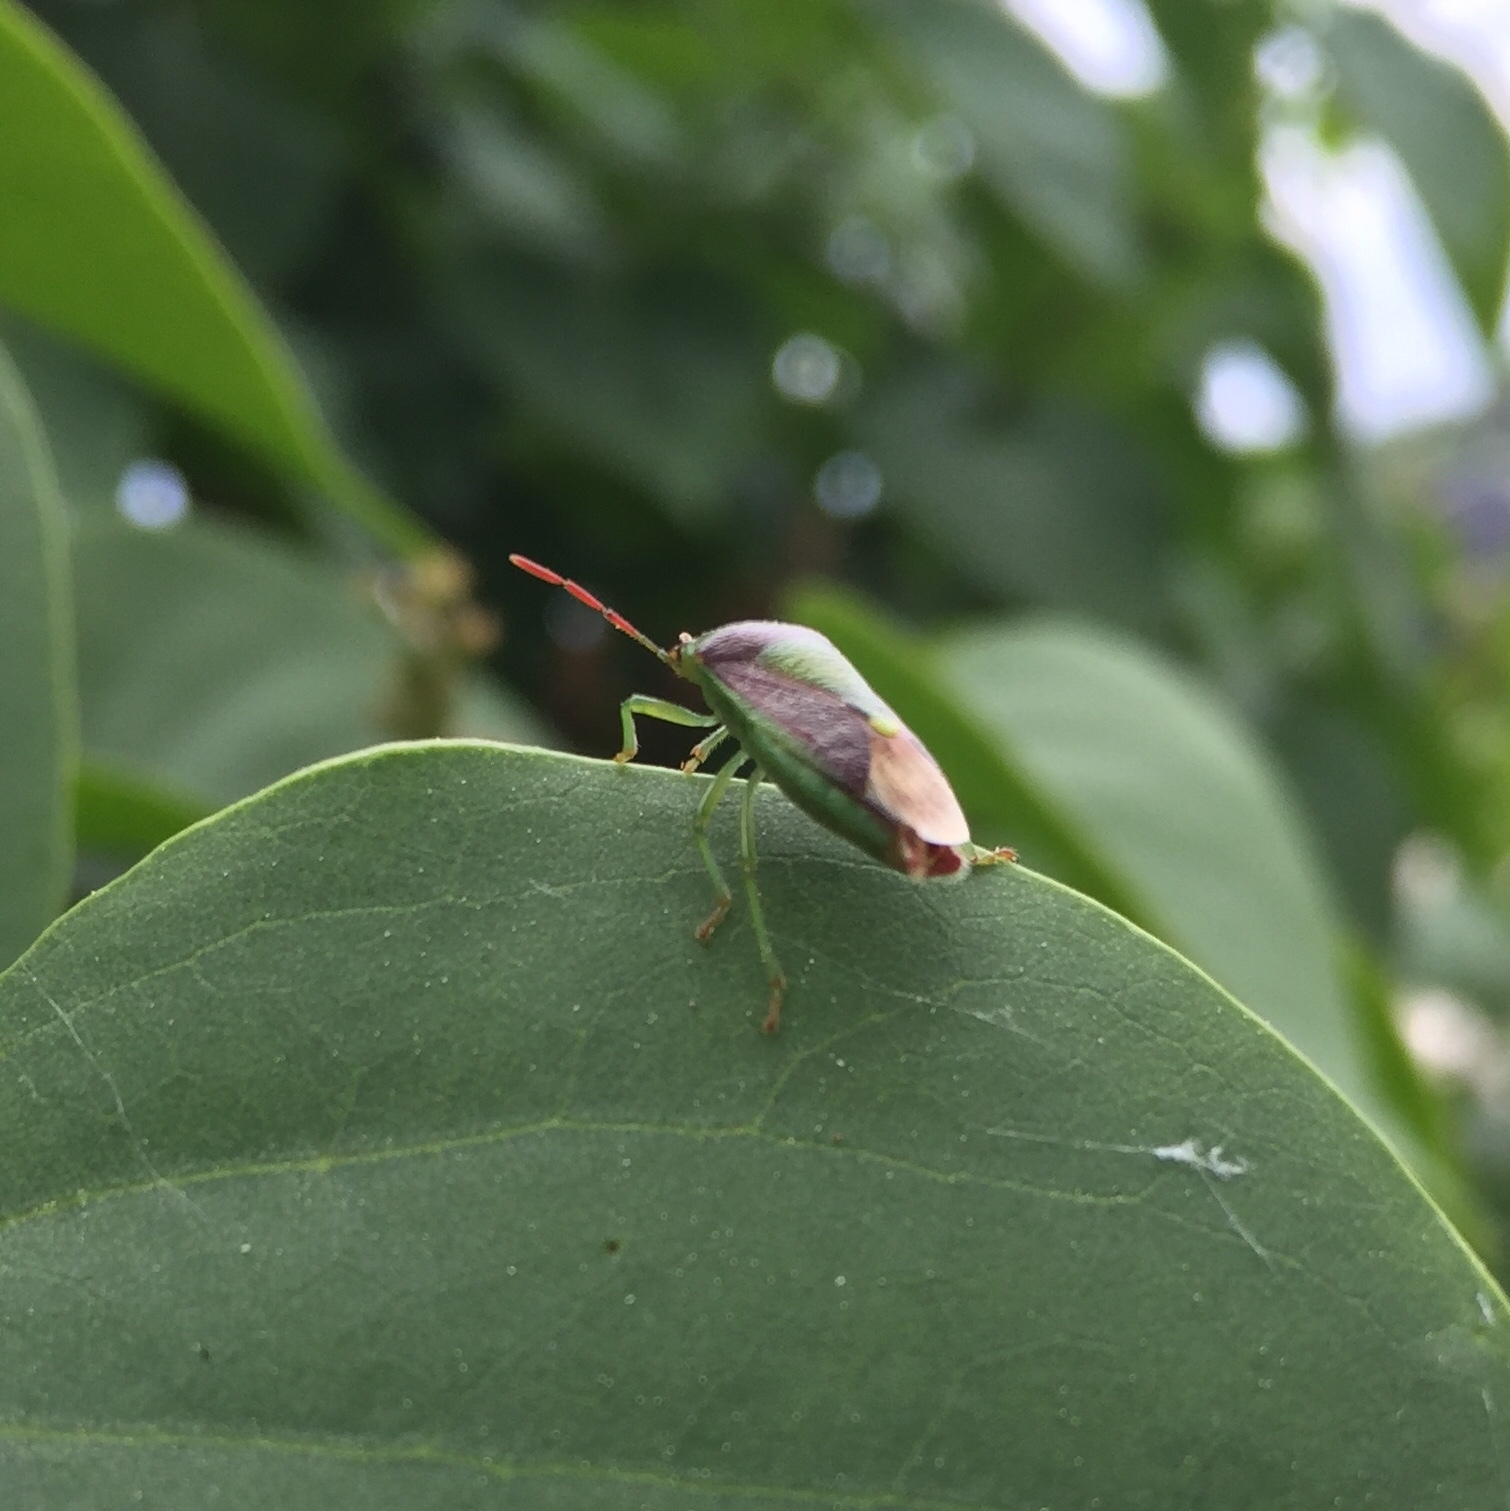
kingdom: Animalia
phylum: Arthropoda
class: Insecta
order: Hemiptera
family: Pentatomidae
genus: Banasa
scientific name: Banasa dimidiata
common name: Green burgundy stink bug
